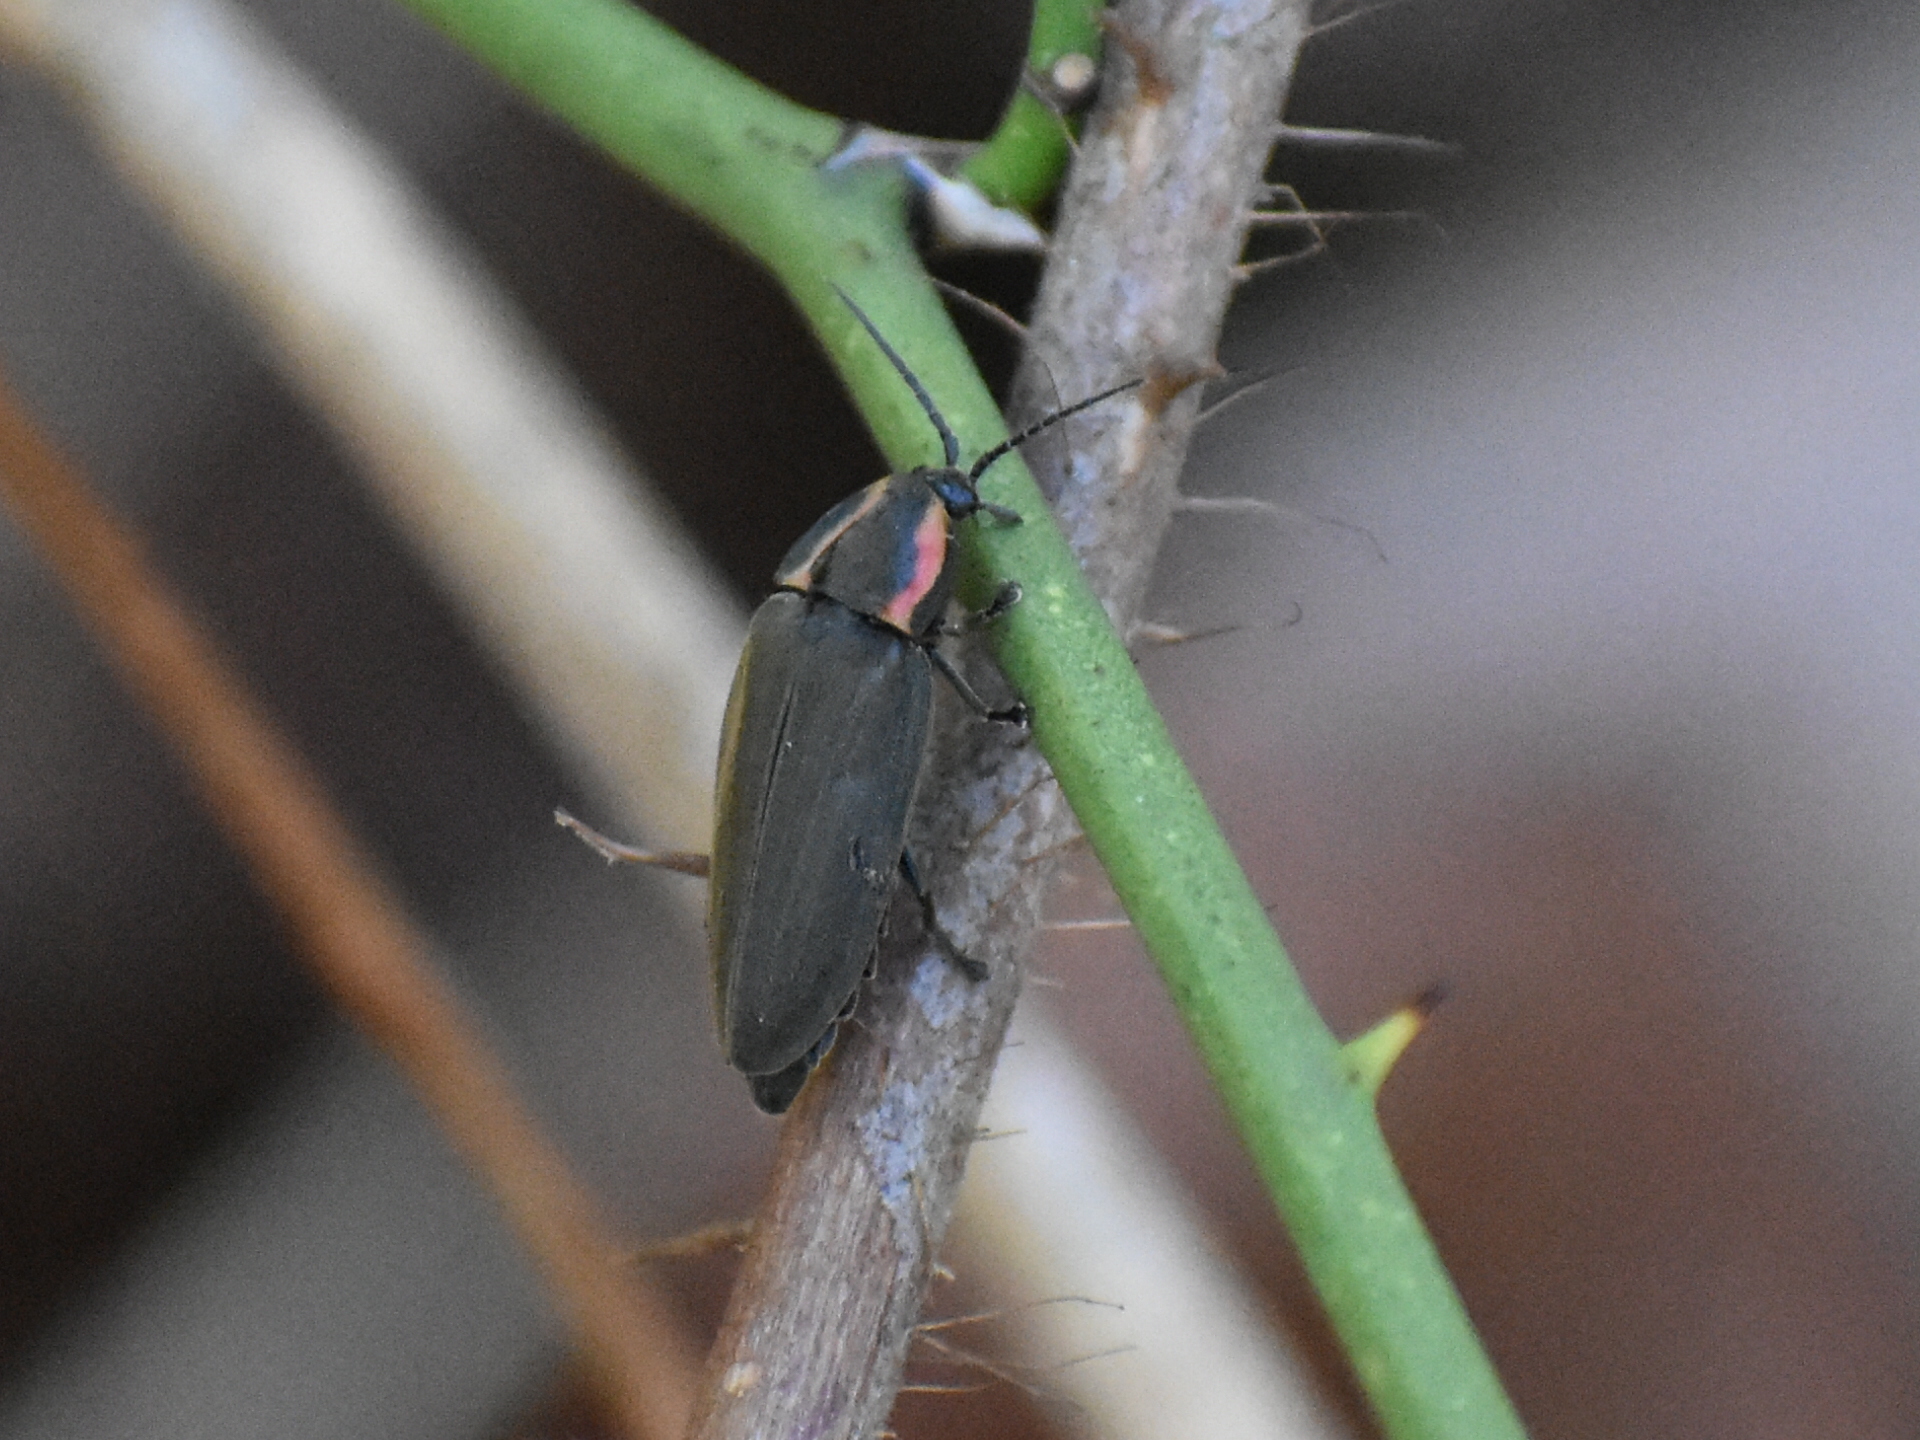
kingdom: Animalia
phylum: Arthropoda
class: Insecta
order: Coleoptera
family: Lampyridae
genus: Photinus
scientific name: Photinus corrusca
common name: Winter firefly
